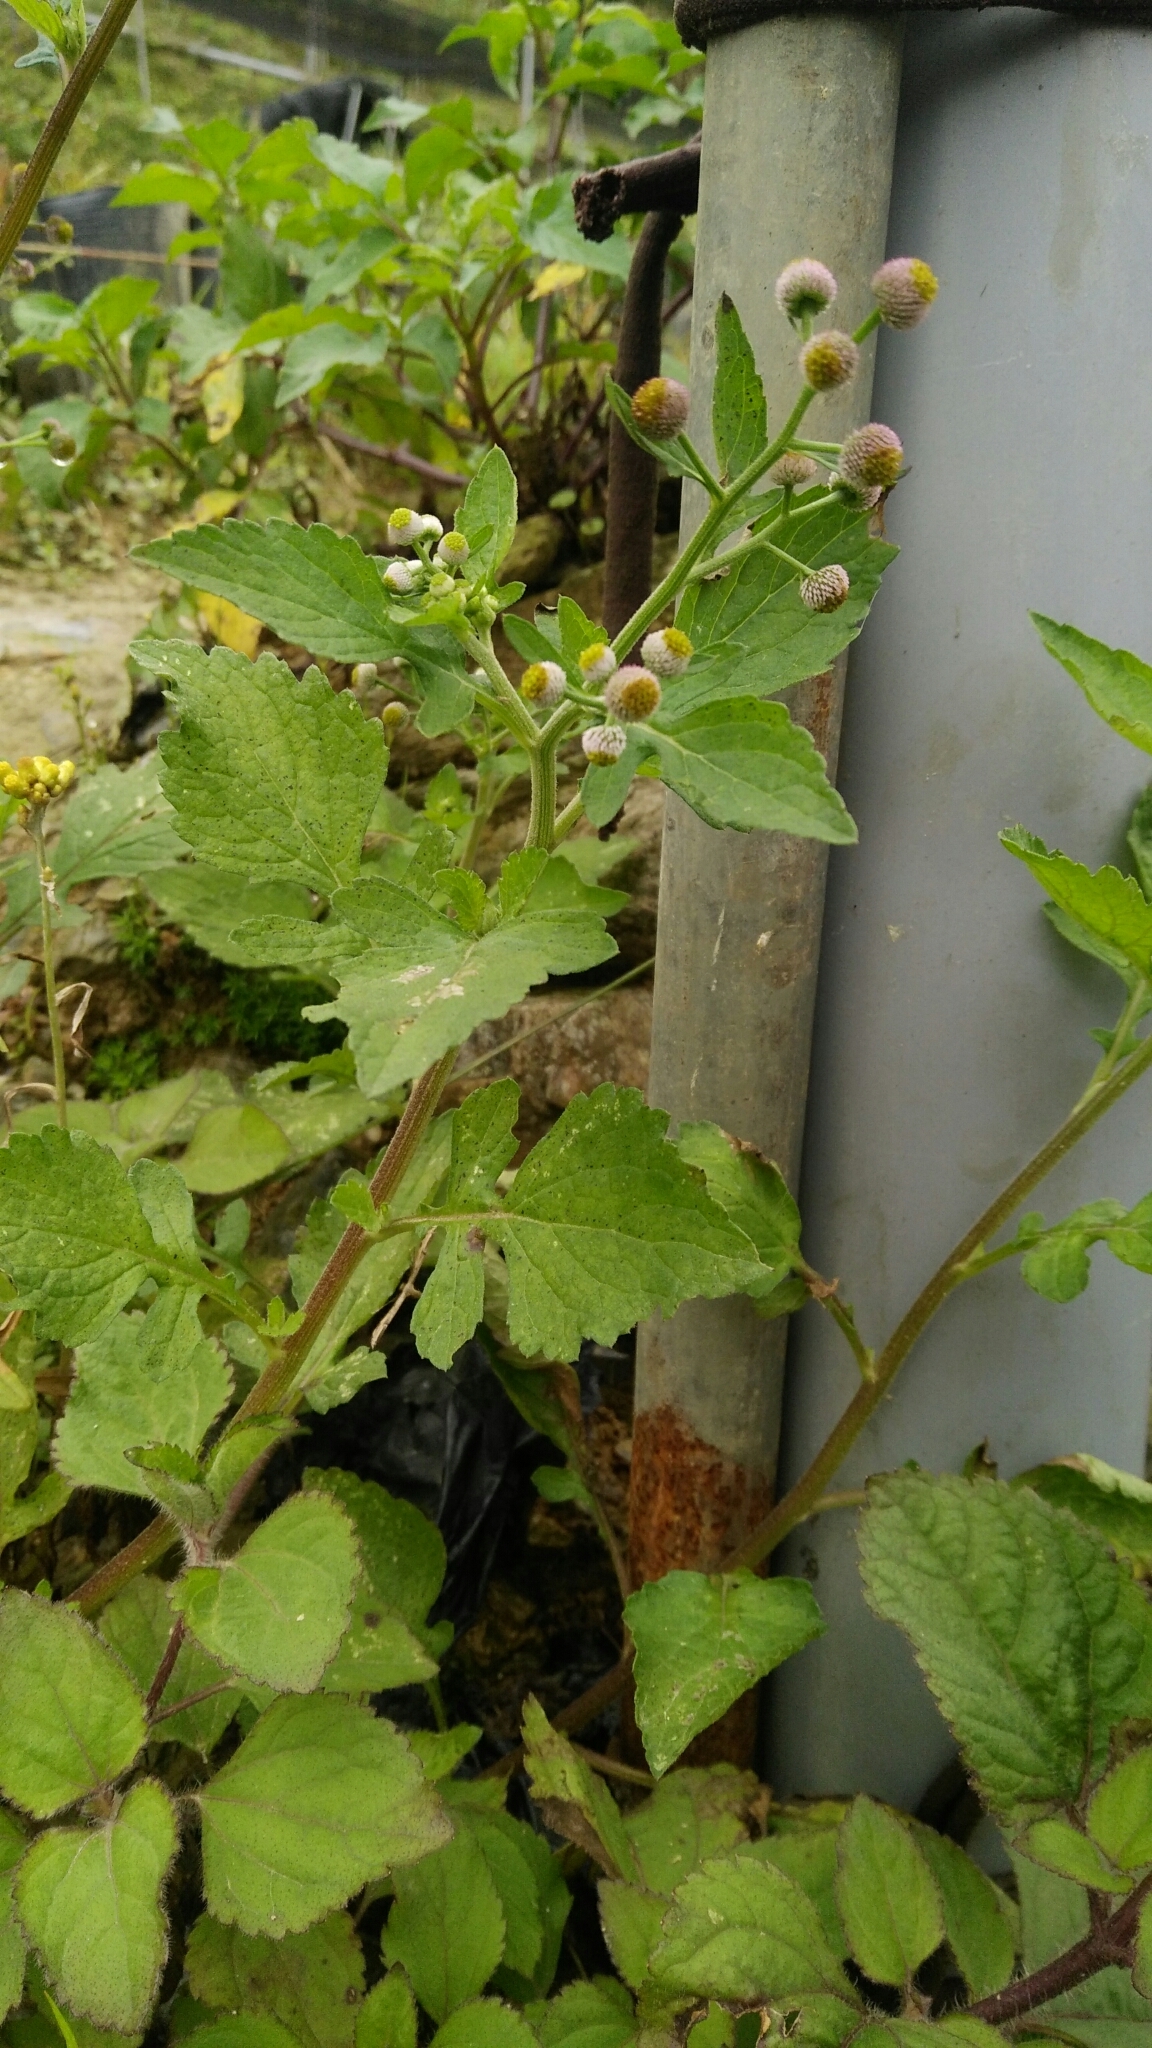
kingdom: Plantae
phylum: Tracheophyta
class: Magnoliopsida
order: Asterales
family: Asteraceae
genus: Dichrocephala
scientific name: Dichrocephala integrifolia
